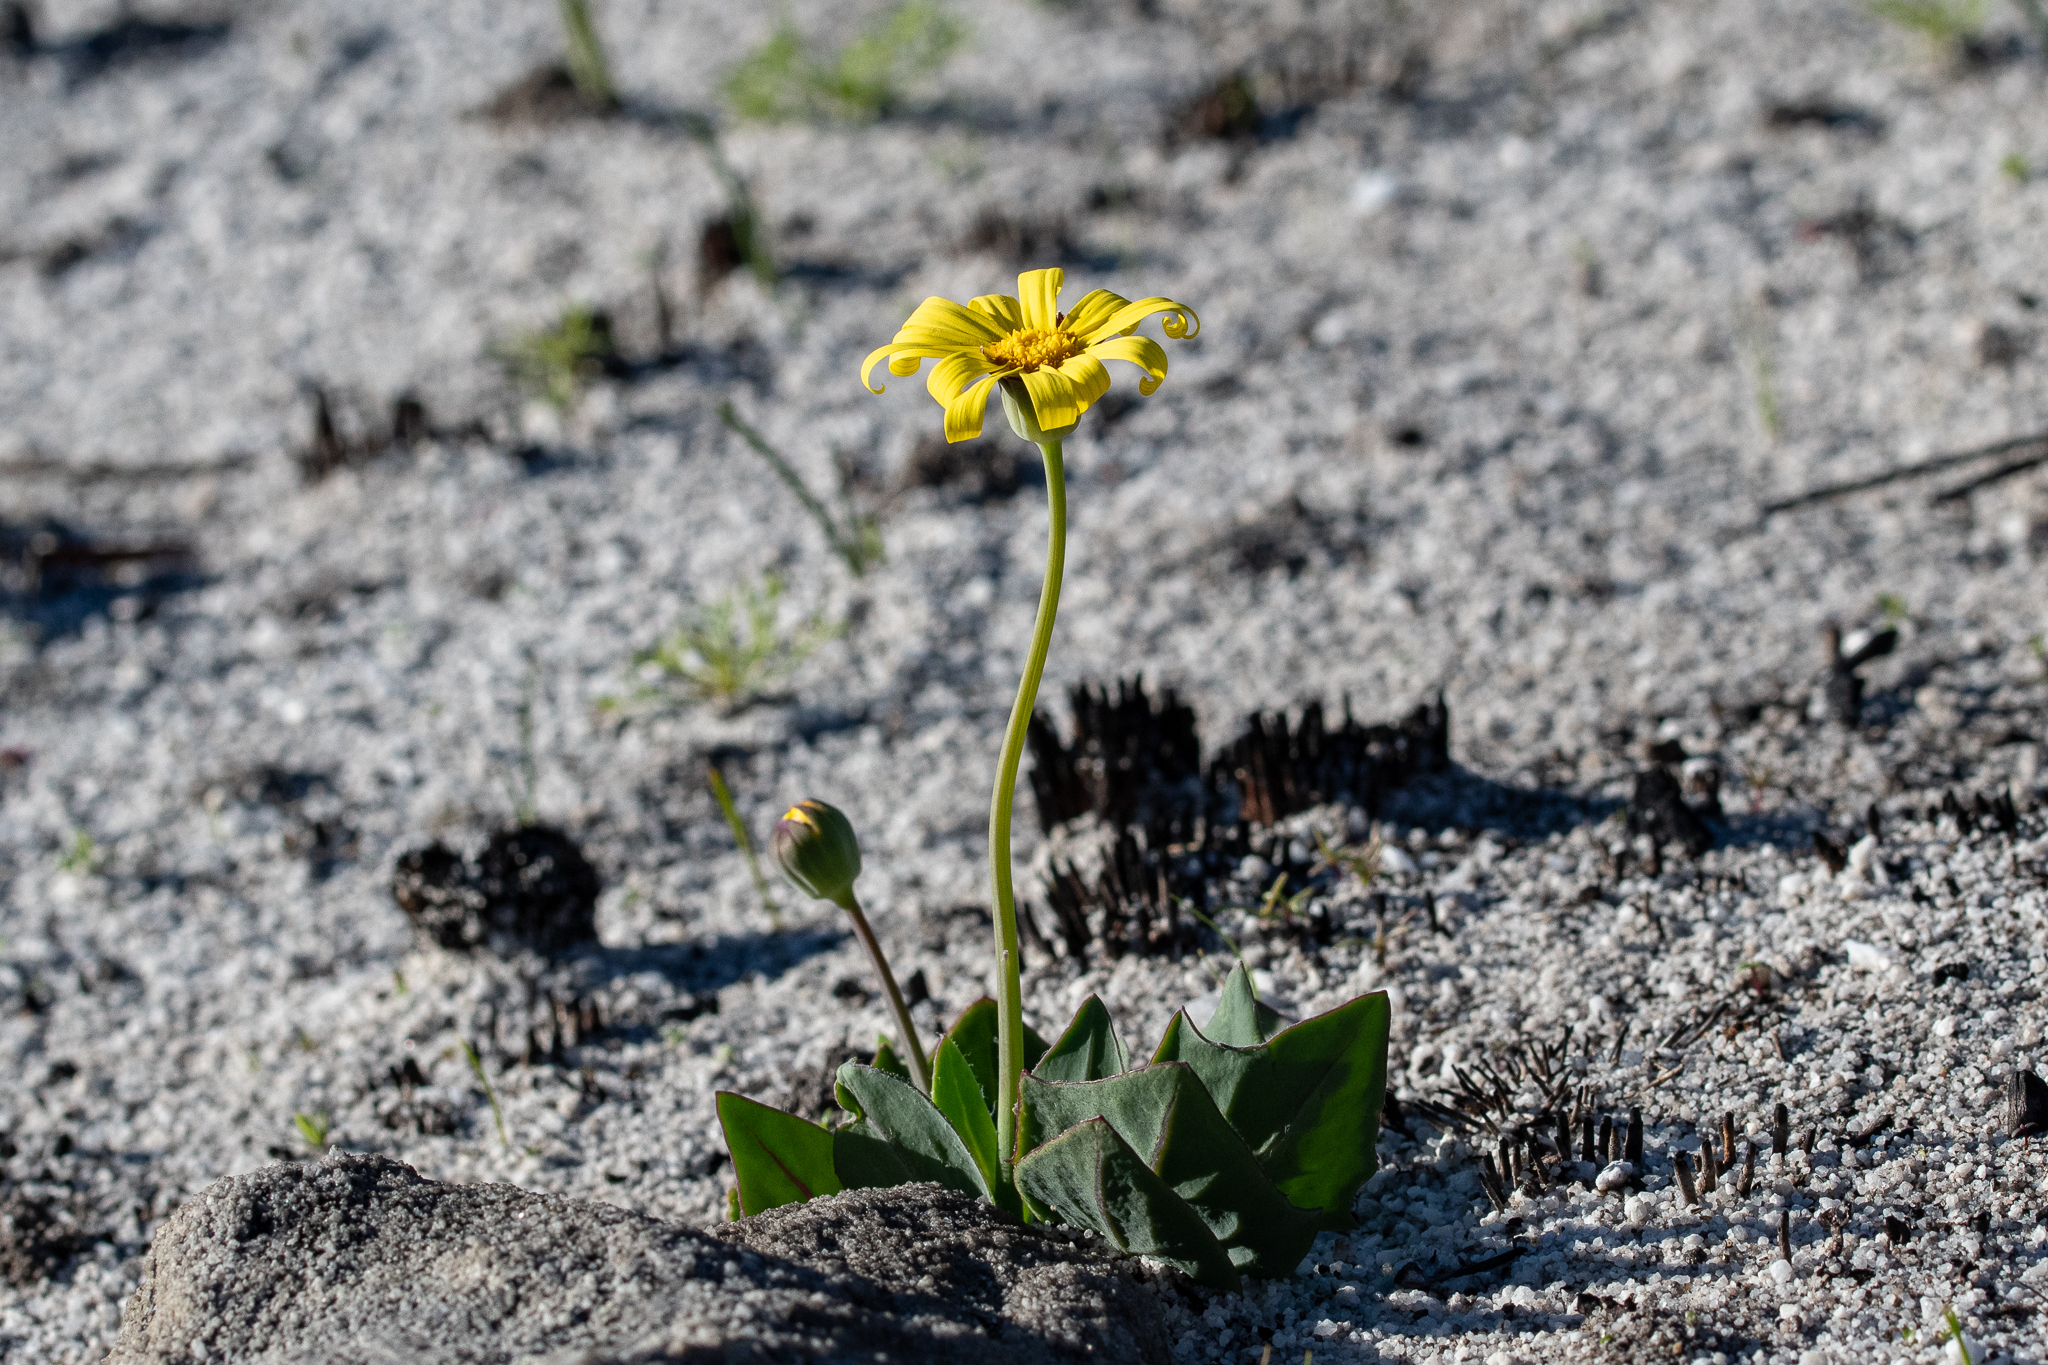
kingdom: Plantae
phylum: Tracheophyta
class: Magnoliopsida
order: Asterales
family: Asteraceae
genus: Othonna
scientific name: Othonna bulbosa
